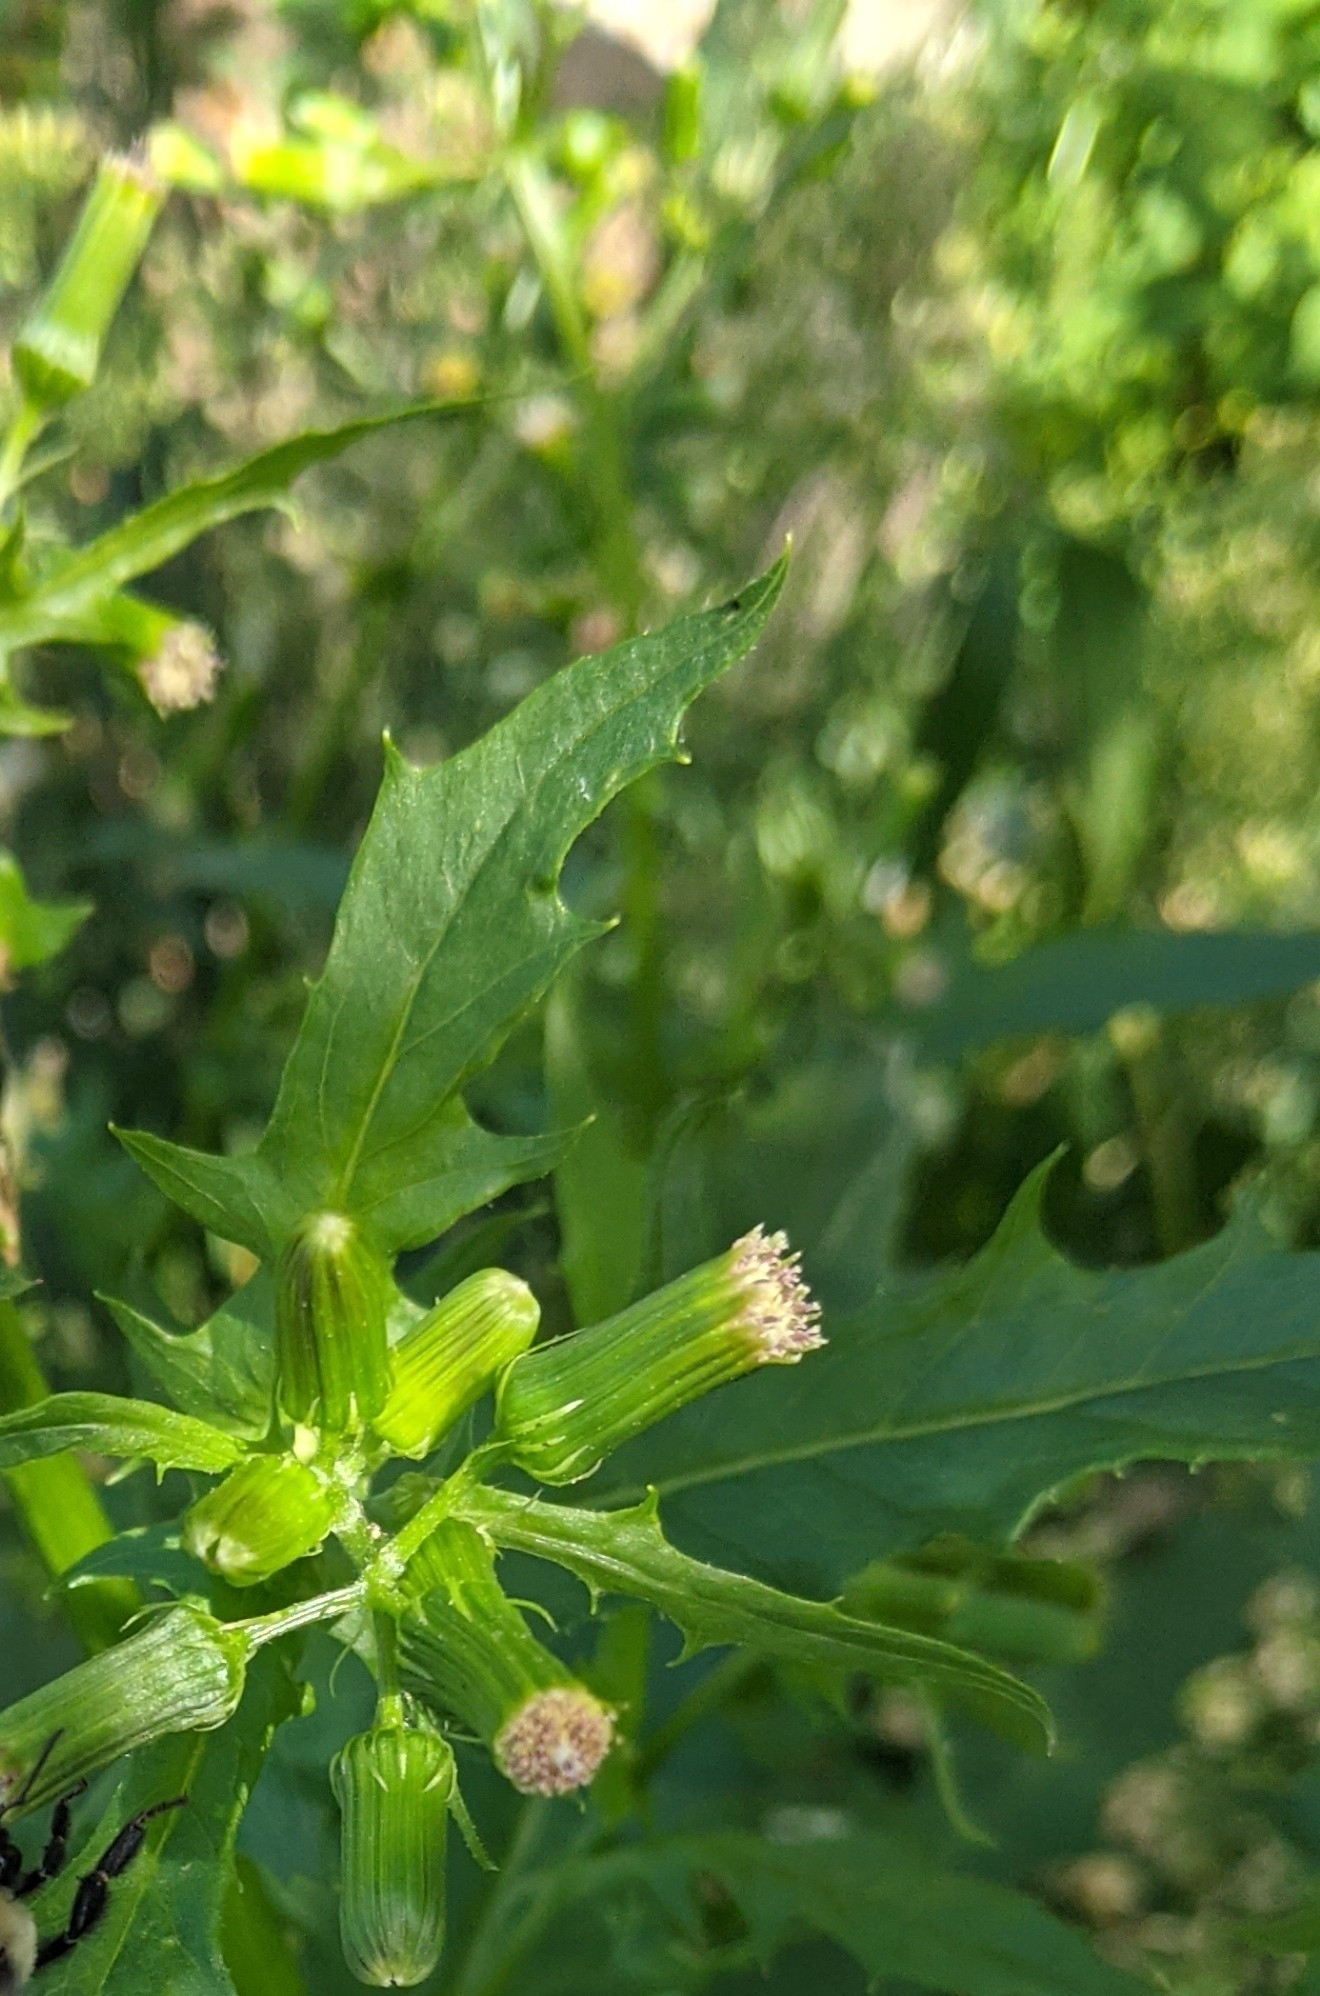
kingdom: Plantae
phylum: Tracheophyta
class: Magnoliopsida
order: Asterales
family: Asteraceae
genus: Erechtites
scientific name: Erechtites hieraciifolius
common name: American burnweed
